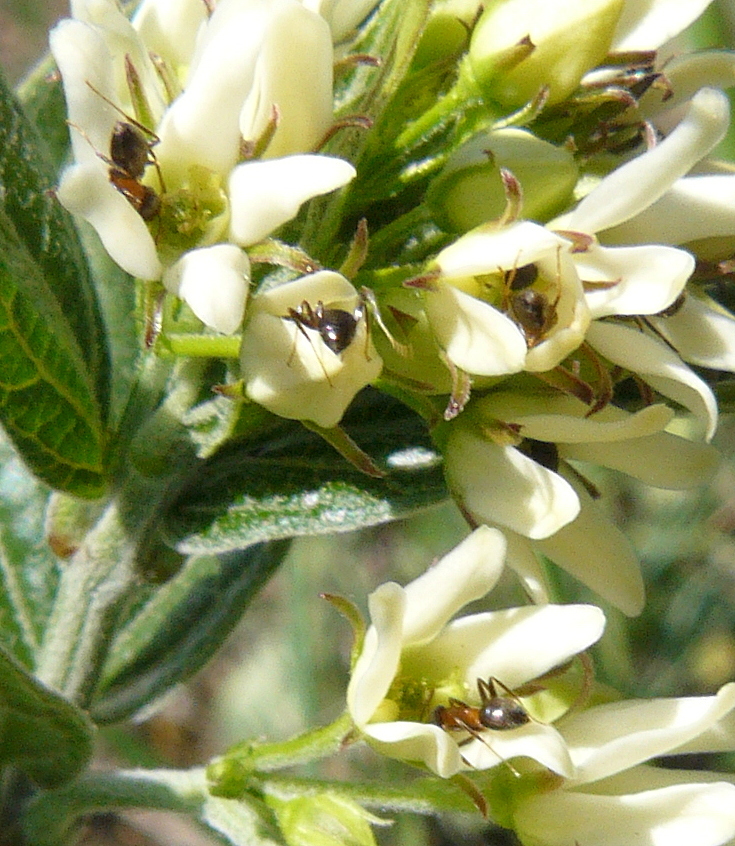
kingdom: Animalia
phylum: Arthropoda
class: Insecta
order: Hymenoptera
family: Formicidae
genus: Lasius
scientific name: Lasius emarginatus
